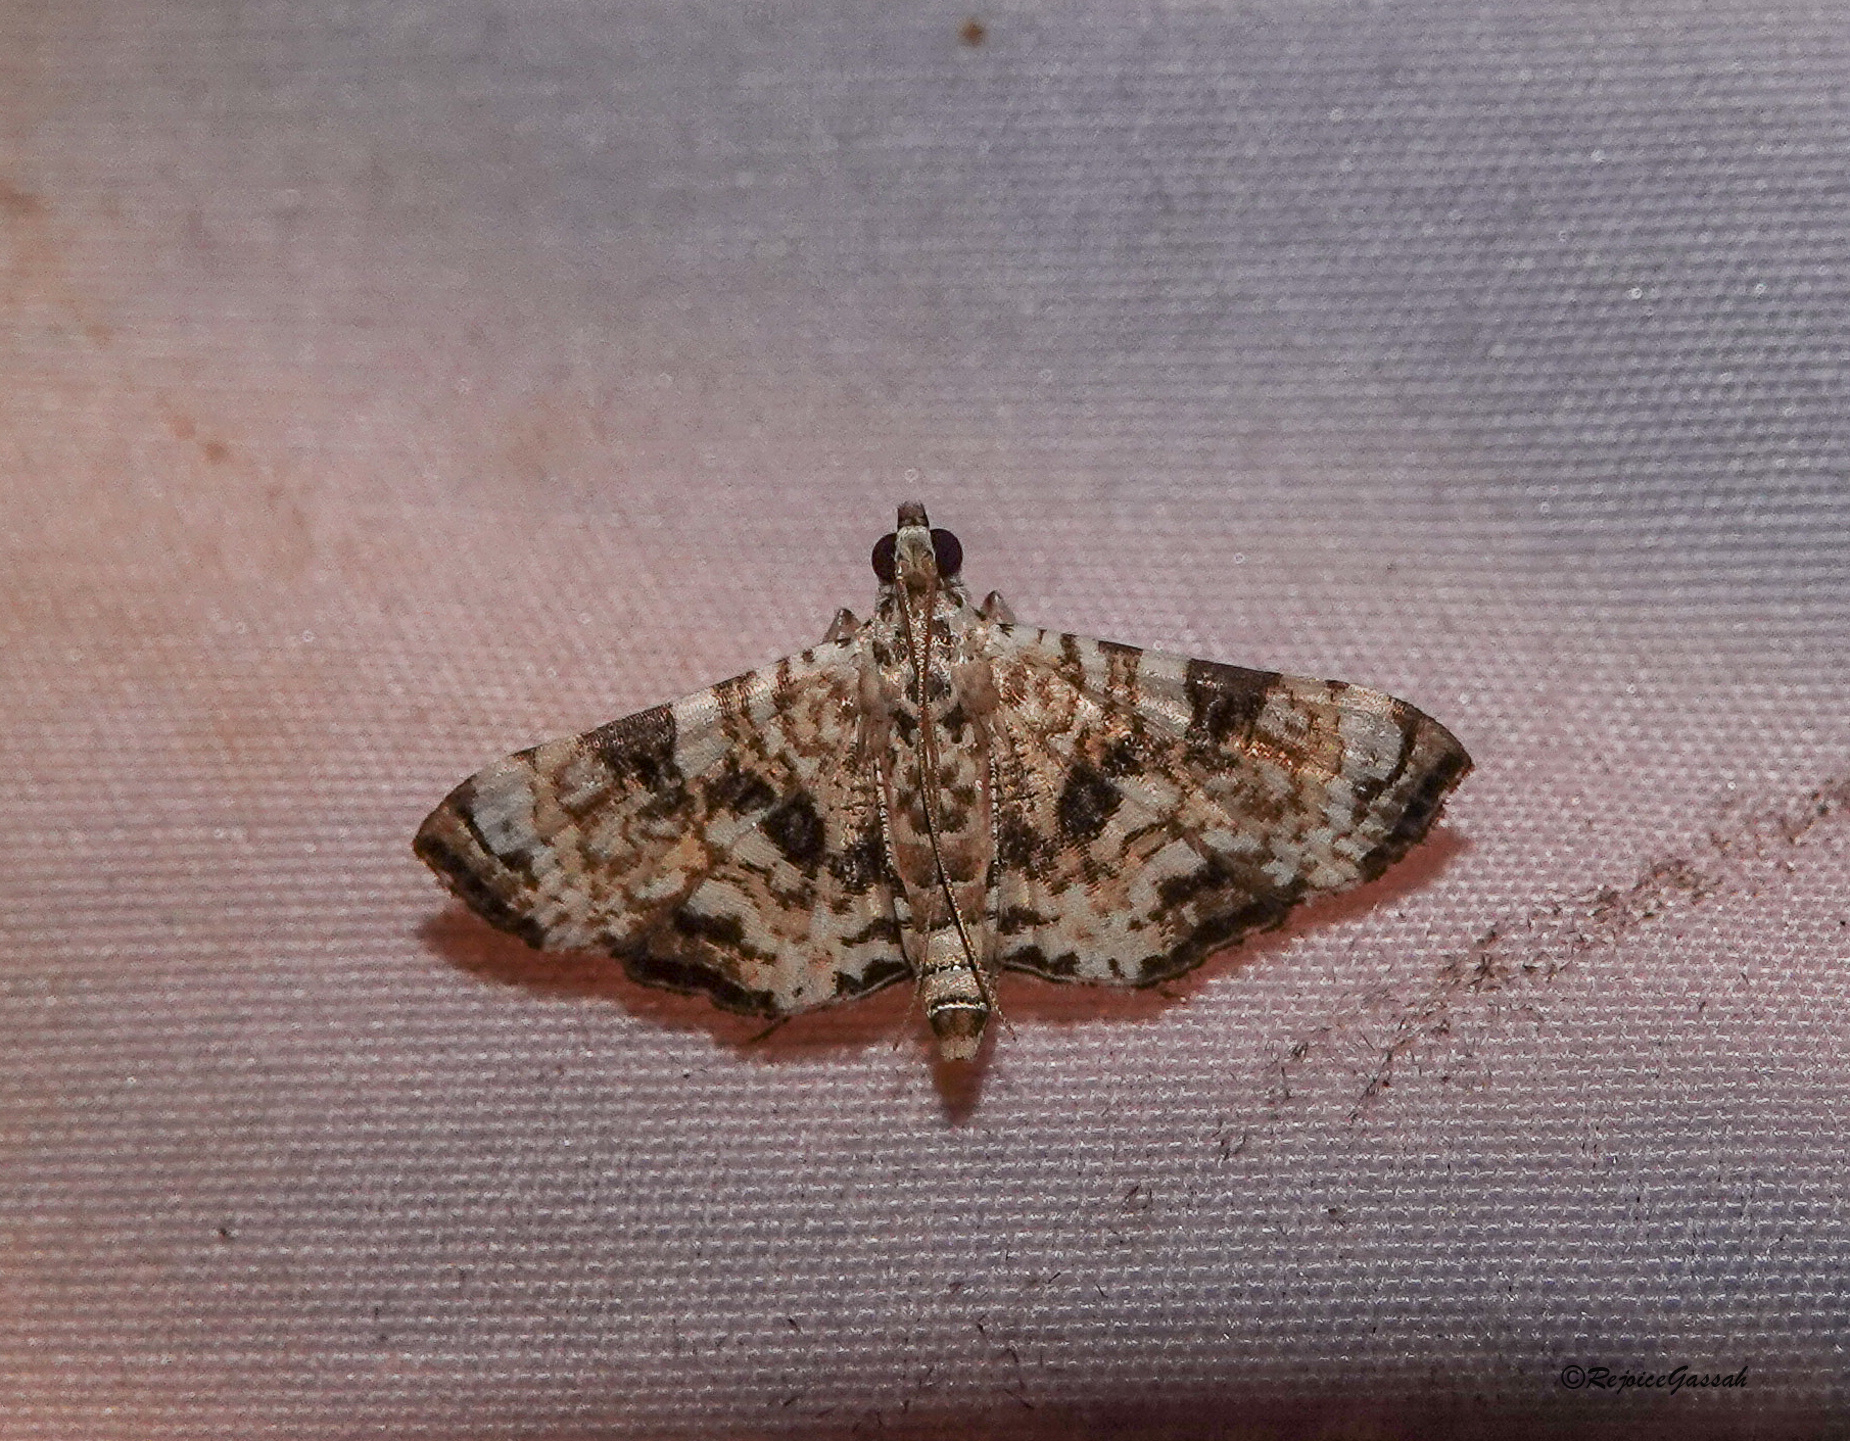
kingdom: Animalia
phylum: Arthropoda
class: Insecta
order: Lepidoptera
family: Crambidae
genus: Symphonia
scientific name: Symphonia multipictalis
